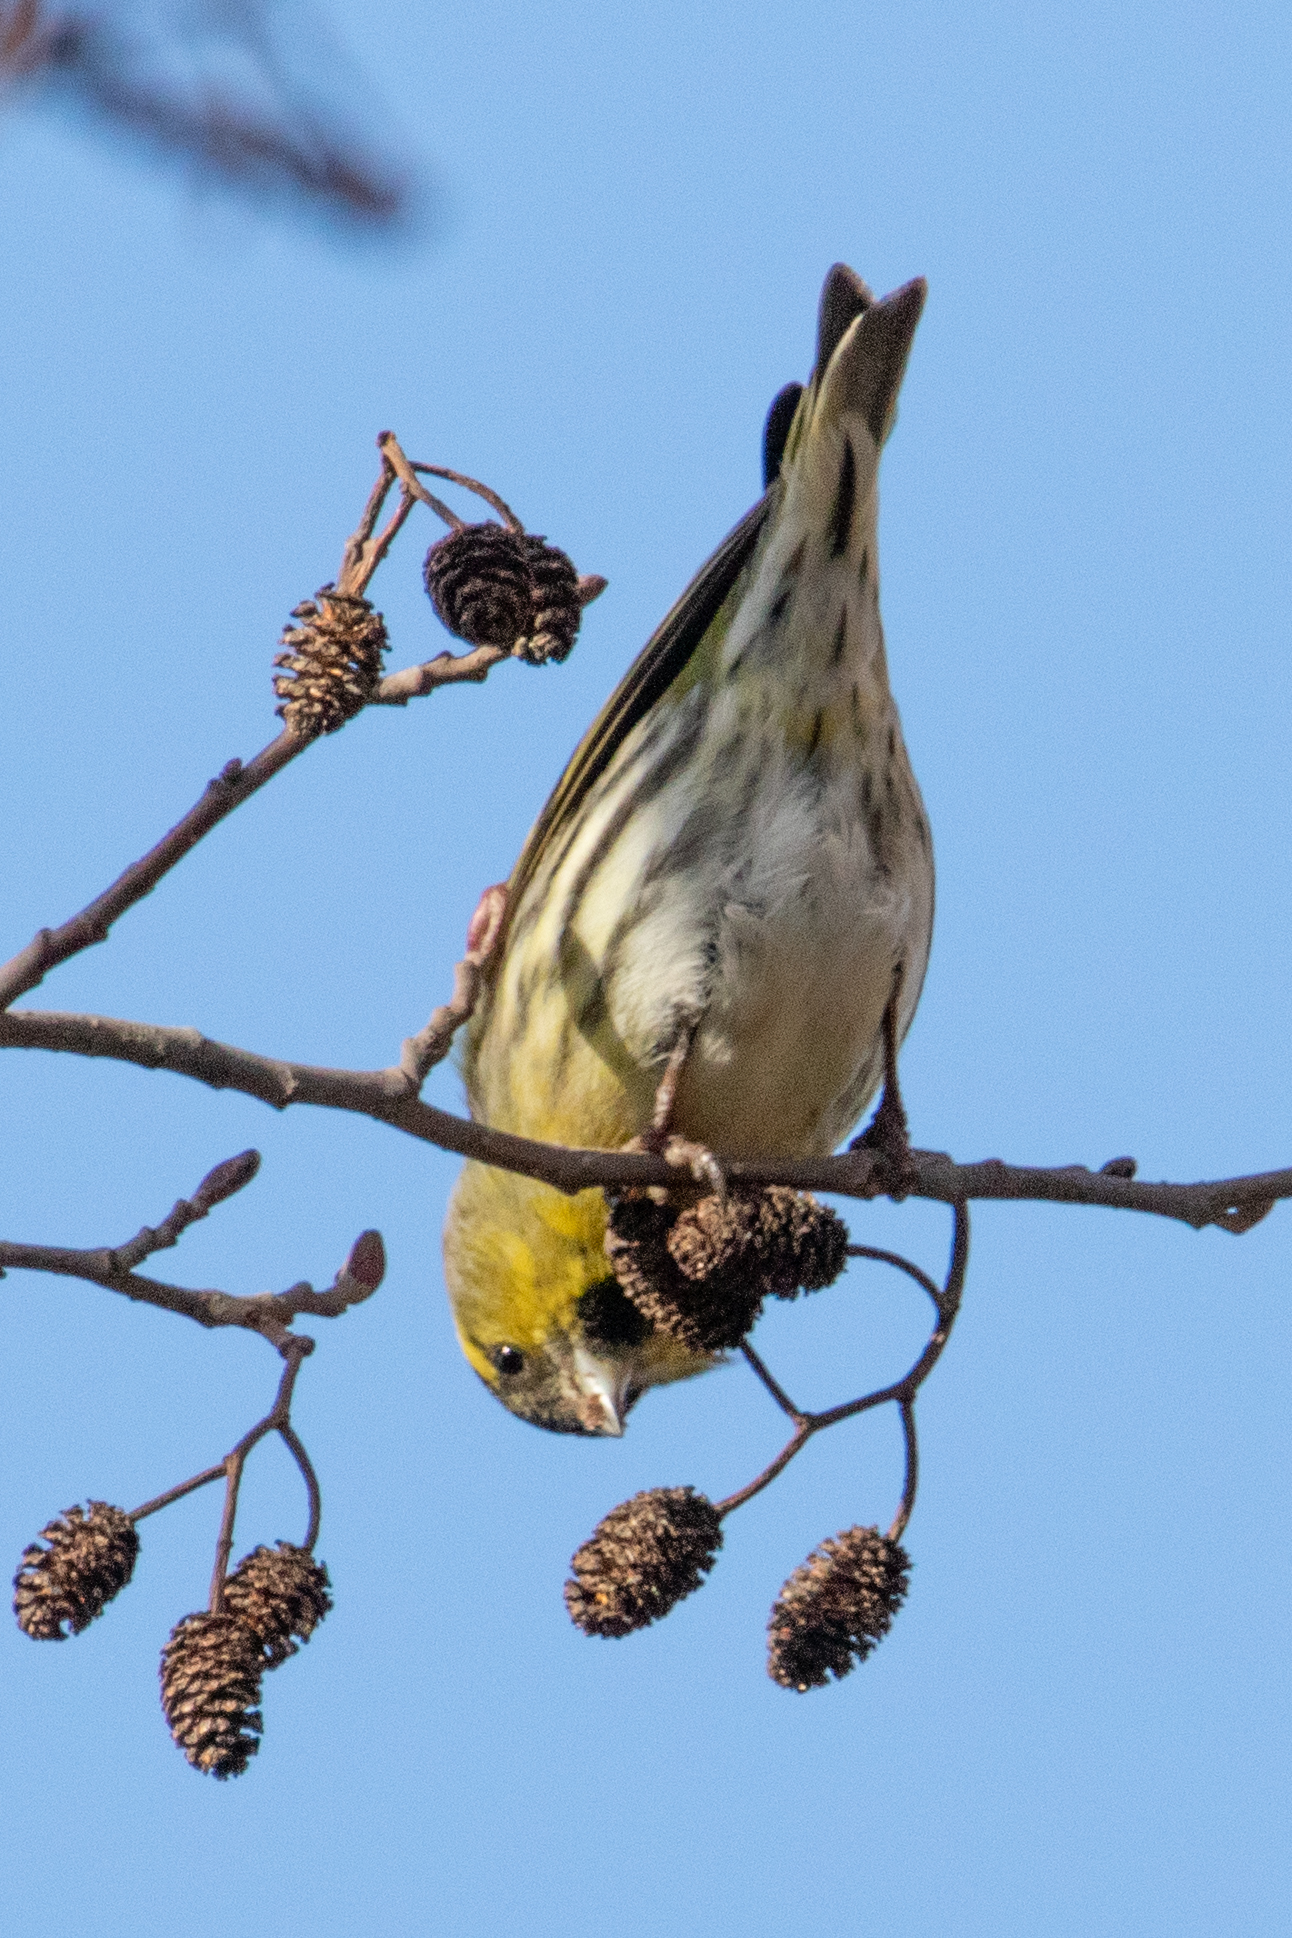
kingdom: Animalia
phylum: Chordata
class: Aves
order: Passeriformes
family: Fringillidae
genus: Spinus
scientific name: Spinus spinus
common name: Eurasian siskin
